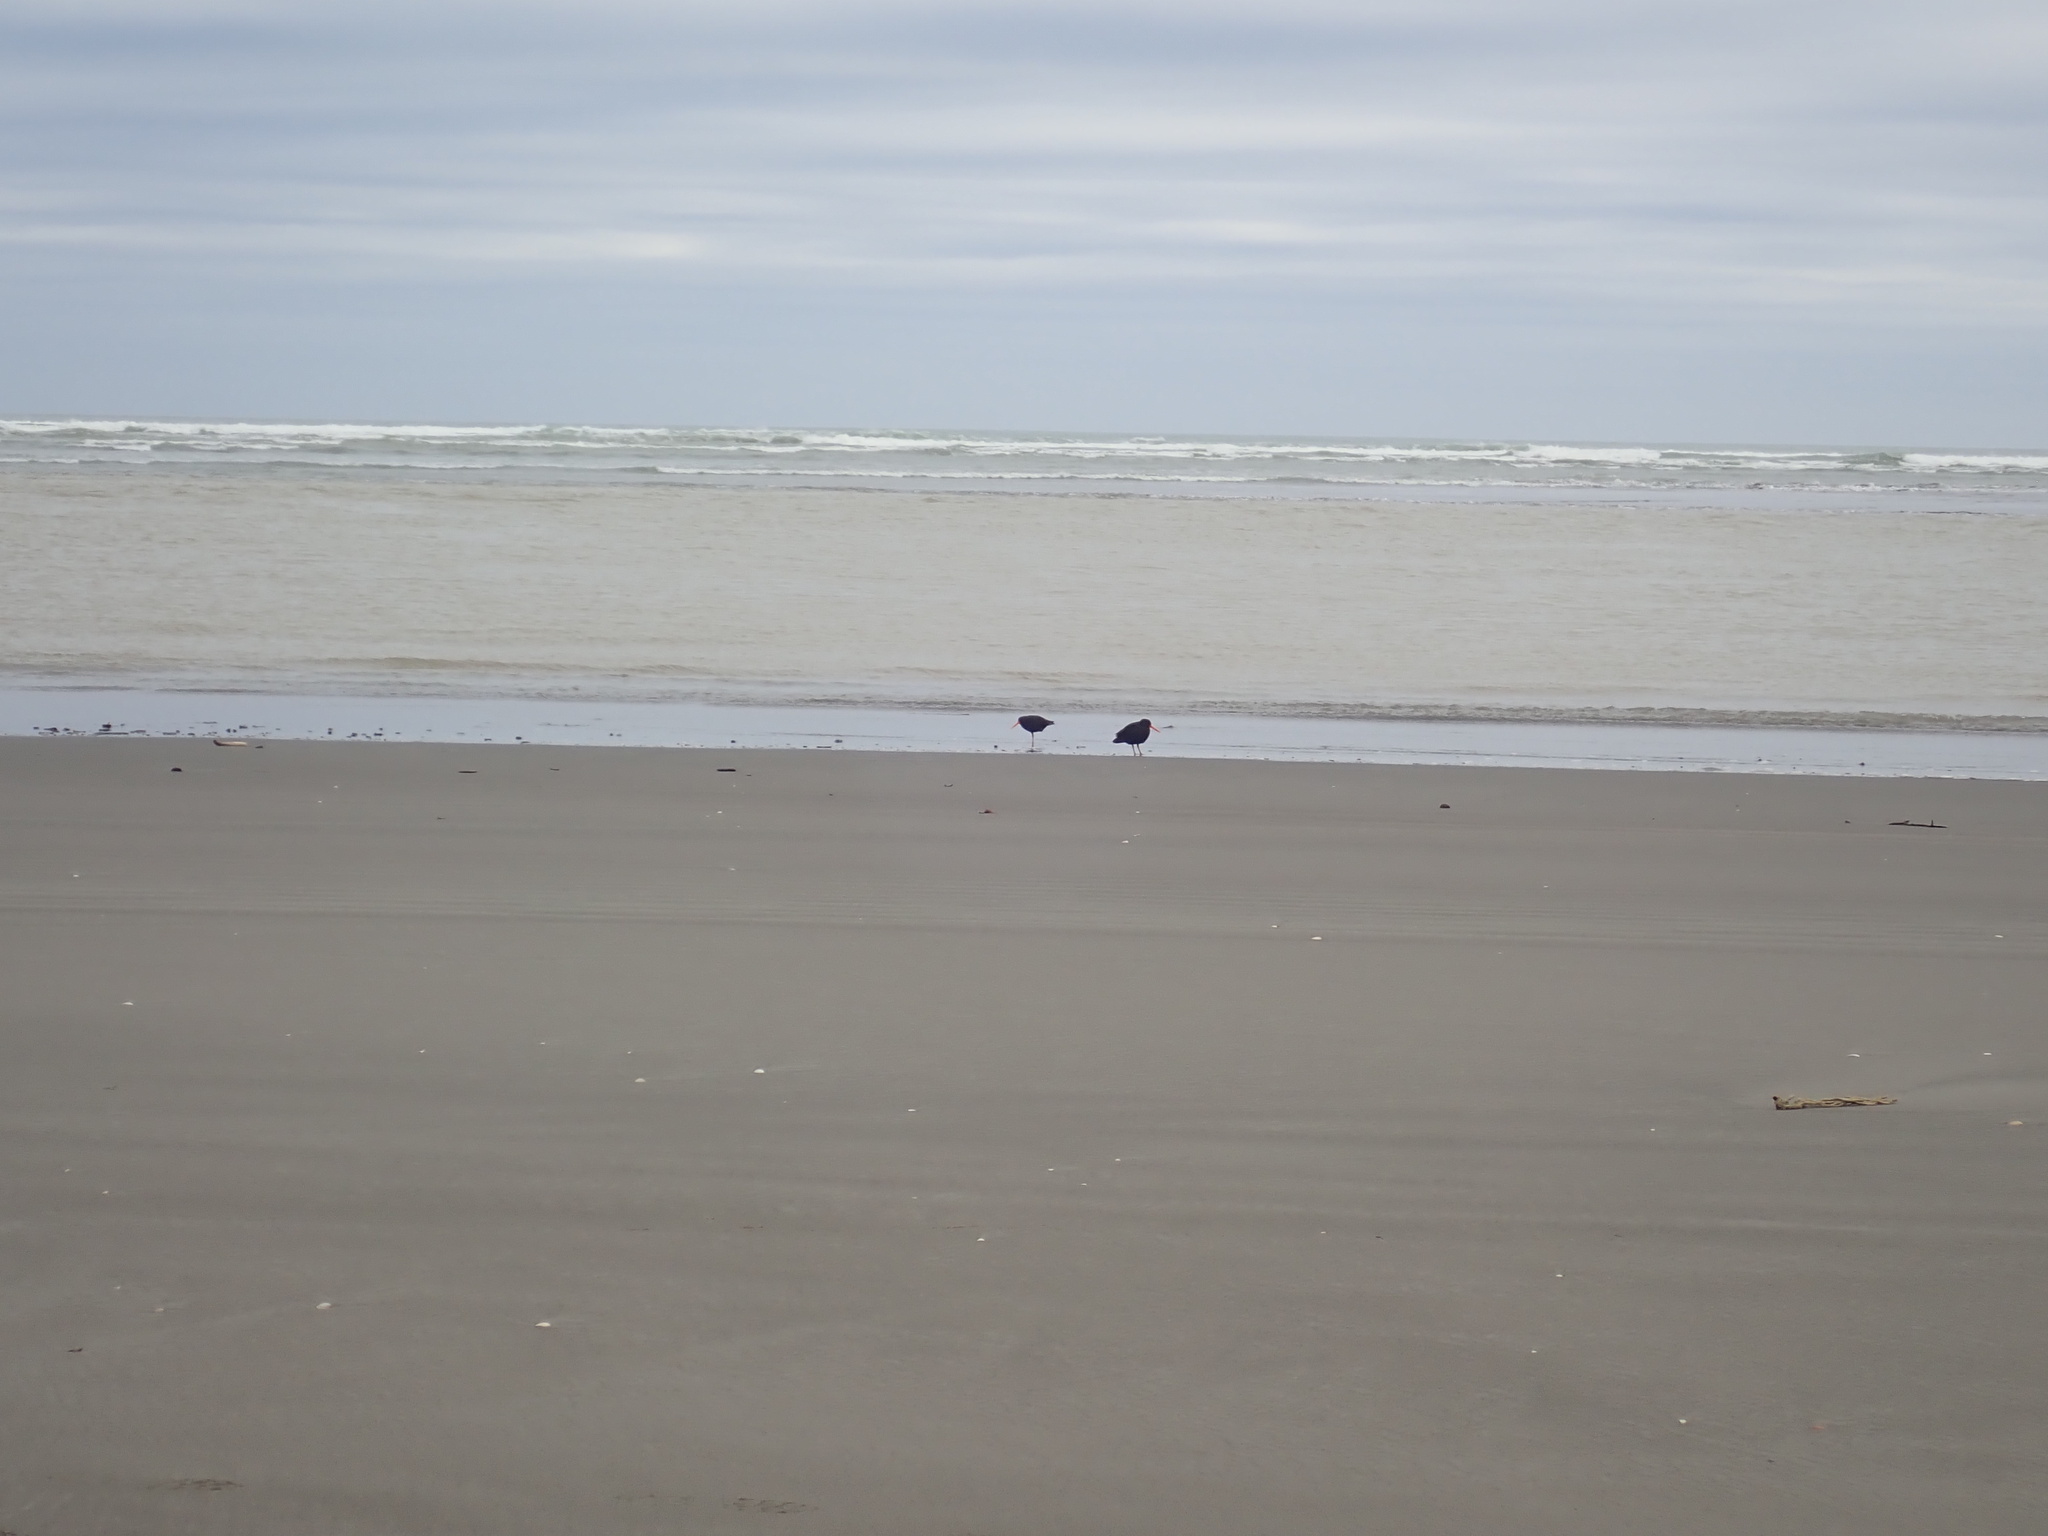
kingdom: Animalia
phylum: Chordata
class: Aves
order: Charadriiformes
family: Haematopodidae
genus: Haematopus
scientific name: Haematopus unicolor
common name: Variable oystercatcher
